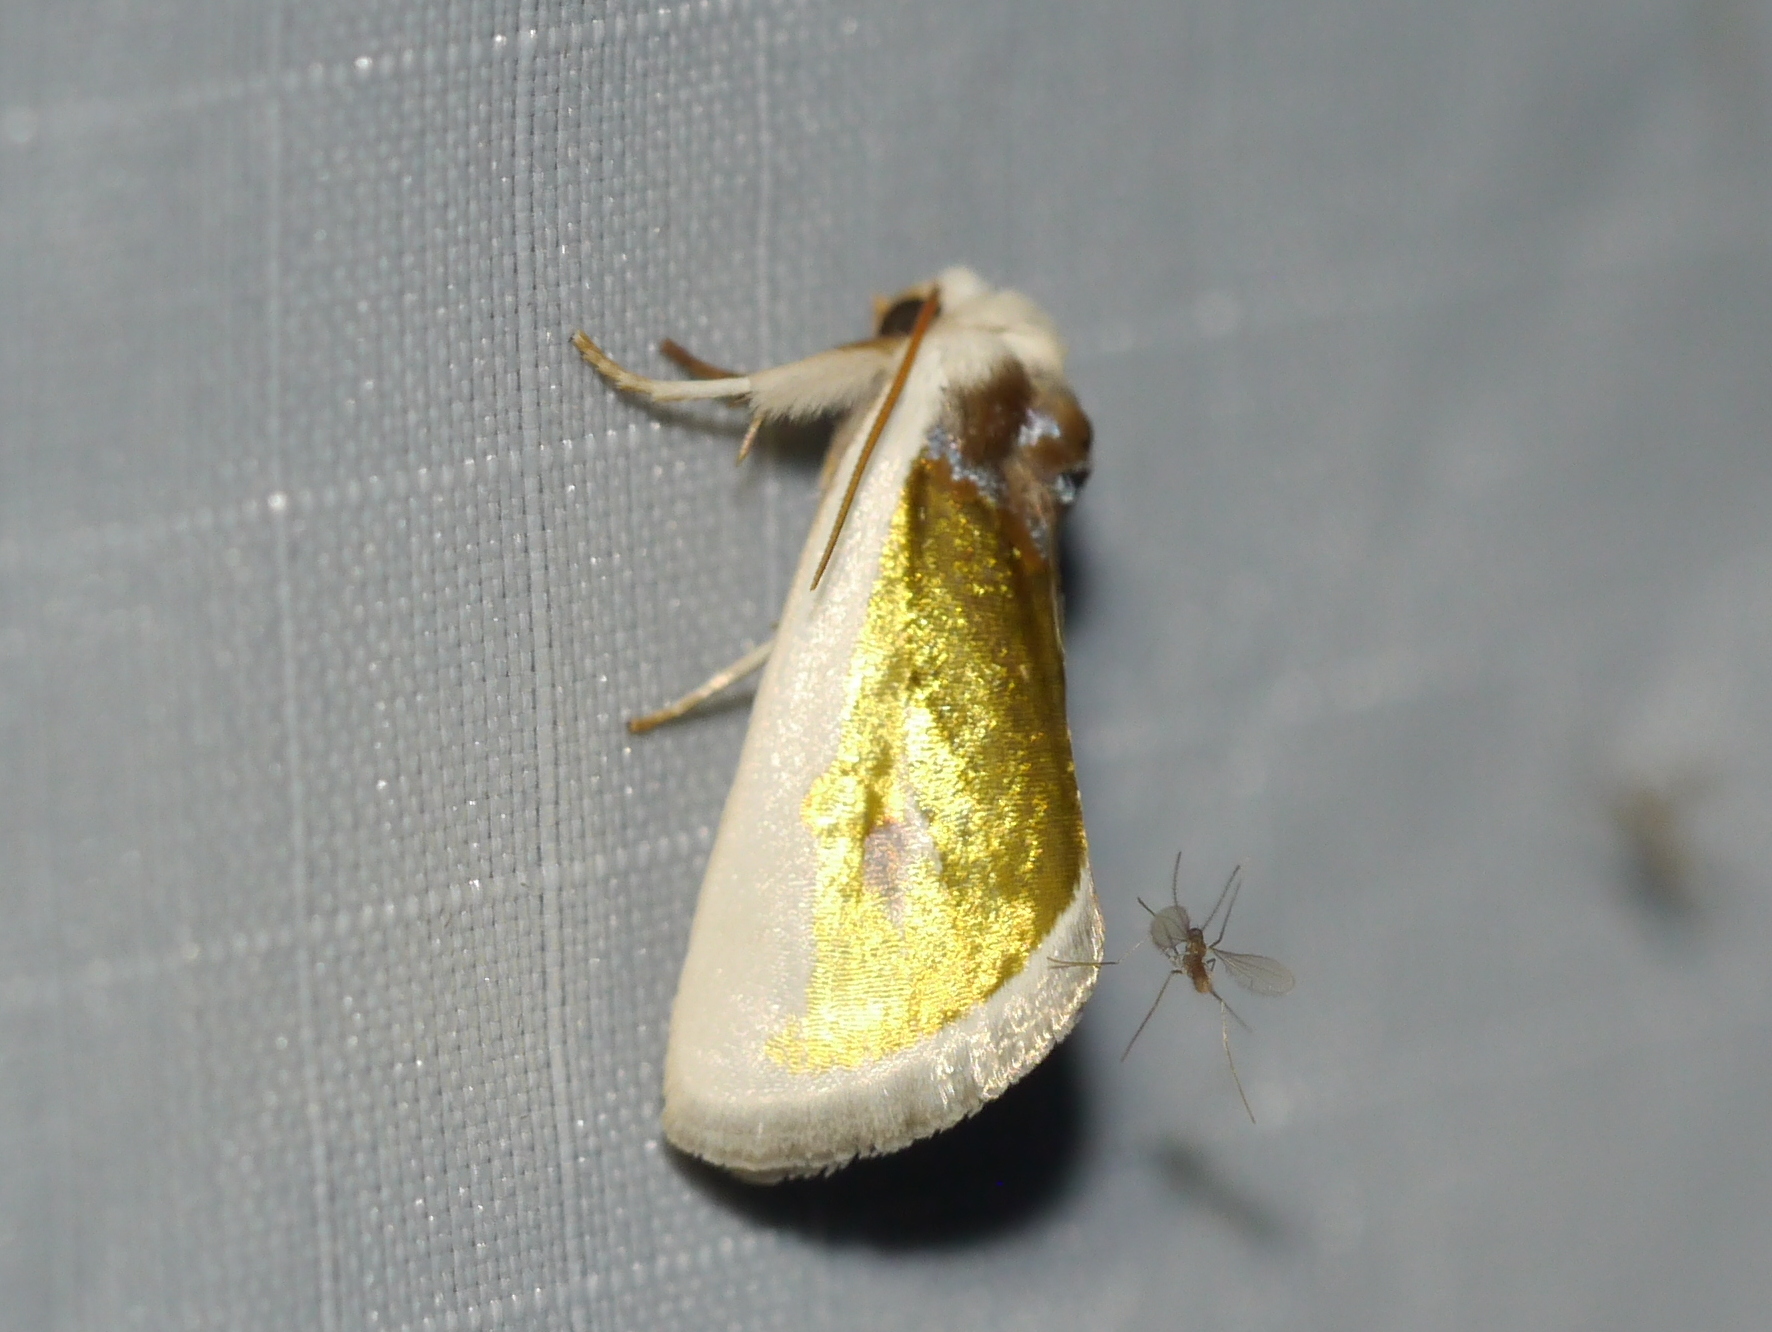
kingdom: Animalia
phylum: Arthropoda
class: Insecta
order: Lepidoptera
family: Noctuidae
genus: Neumoegenia
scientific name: Neumoegenia poetica
